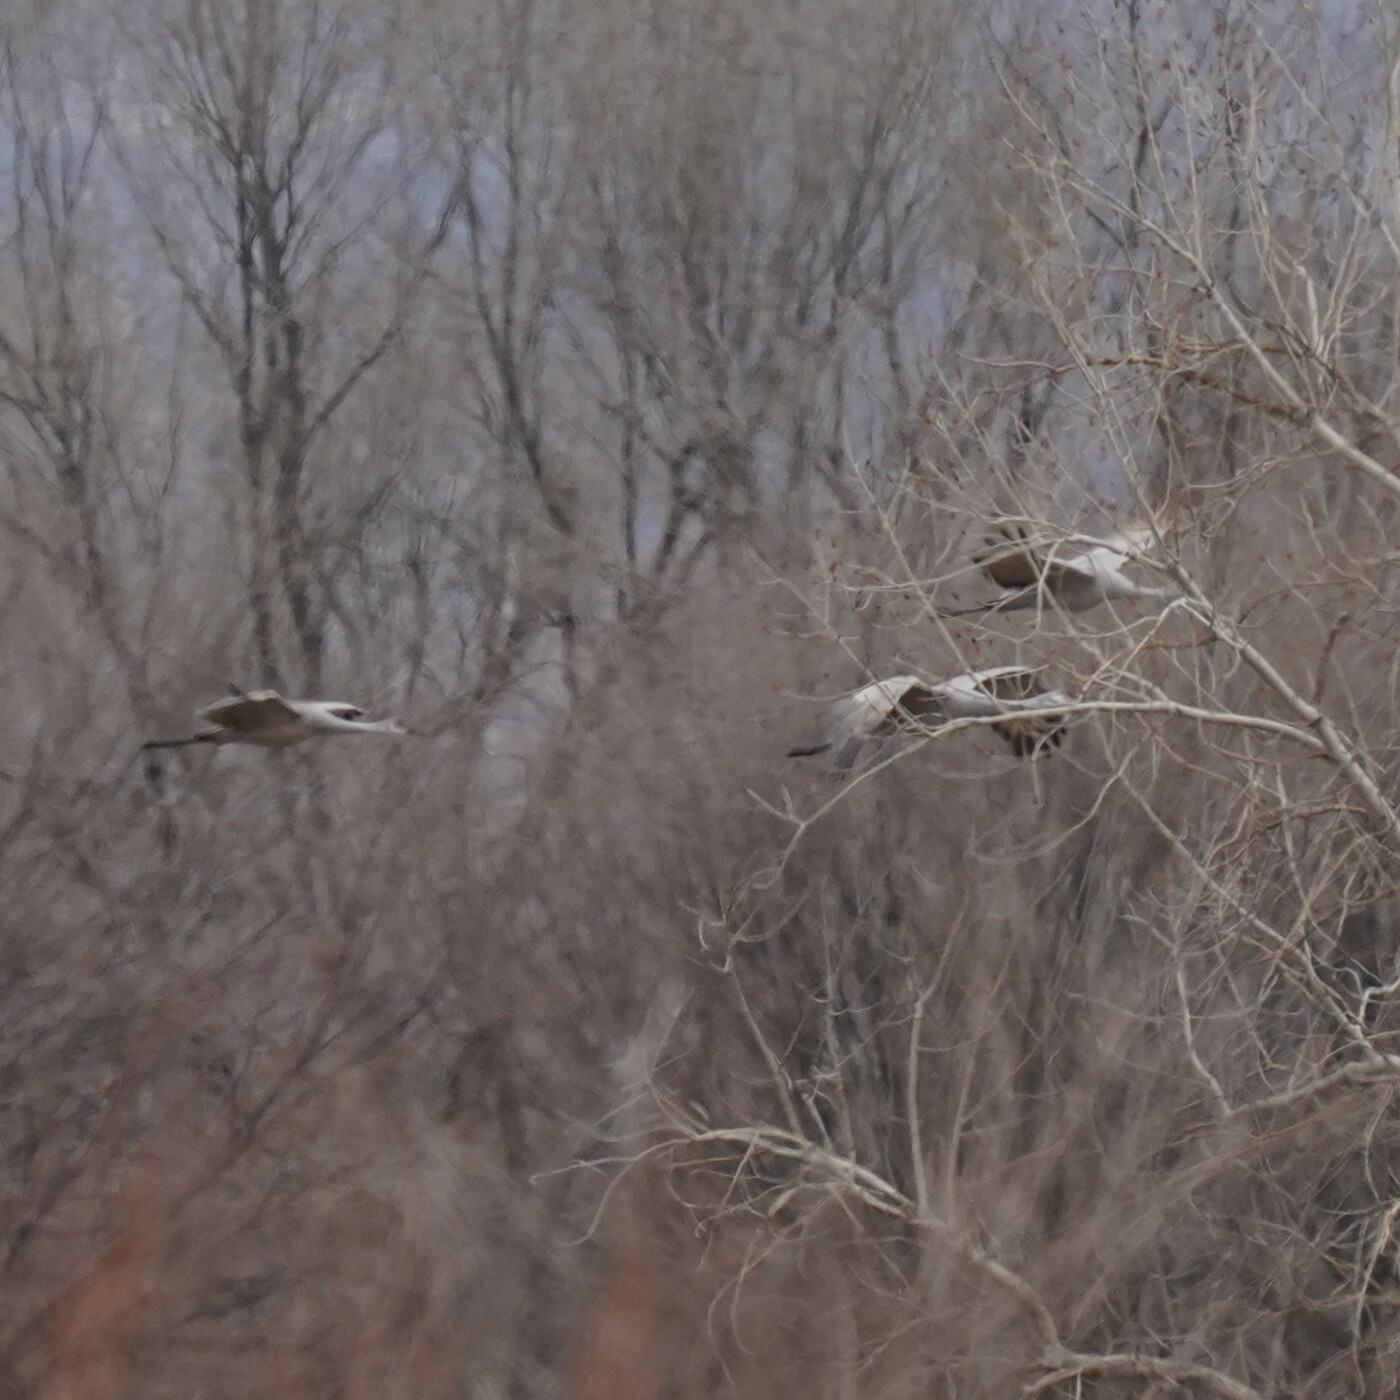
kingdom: Animalia
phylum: Chordata
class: Aves
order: Gruiformes
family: Gruidae
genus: Grus
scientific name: Grus canadensis
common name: Sandhill crane
